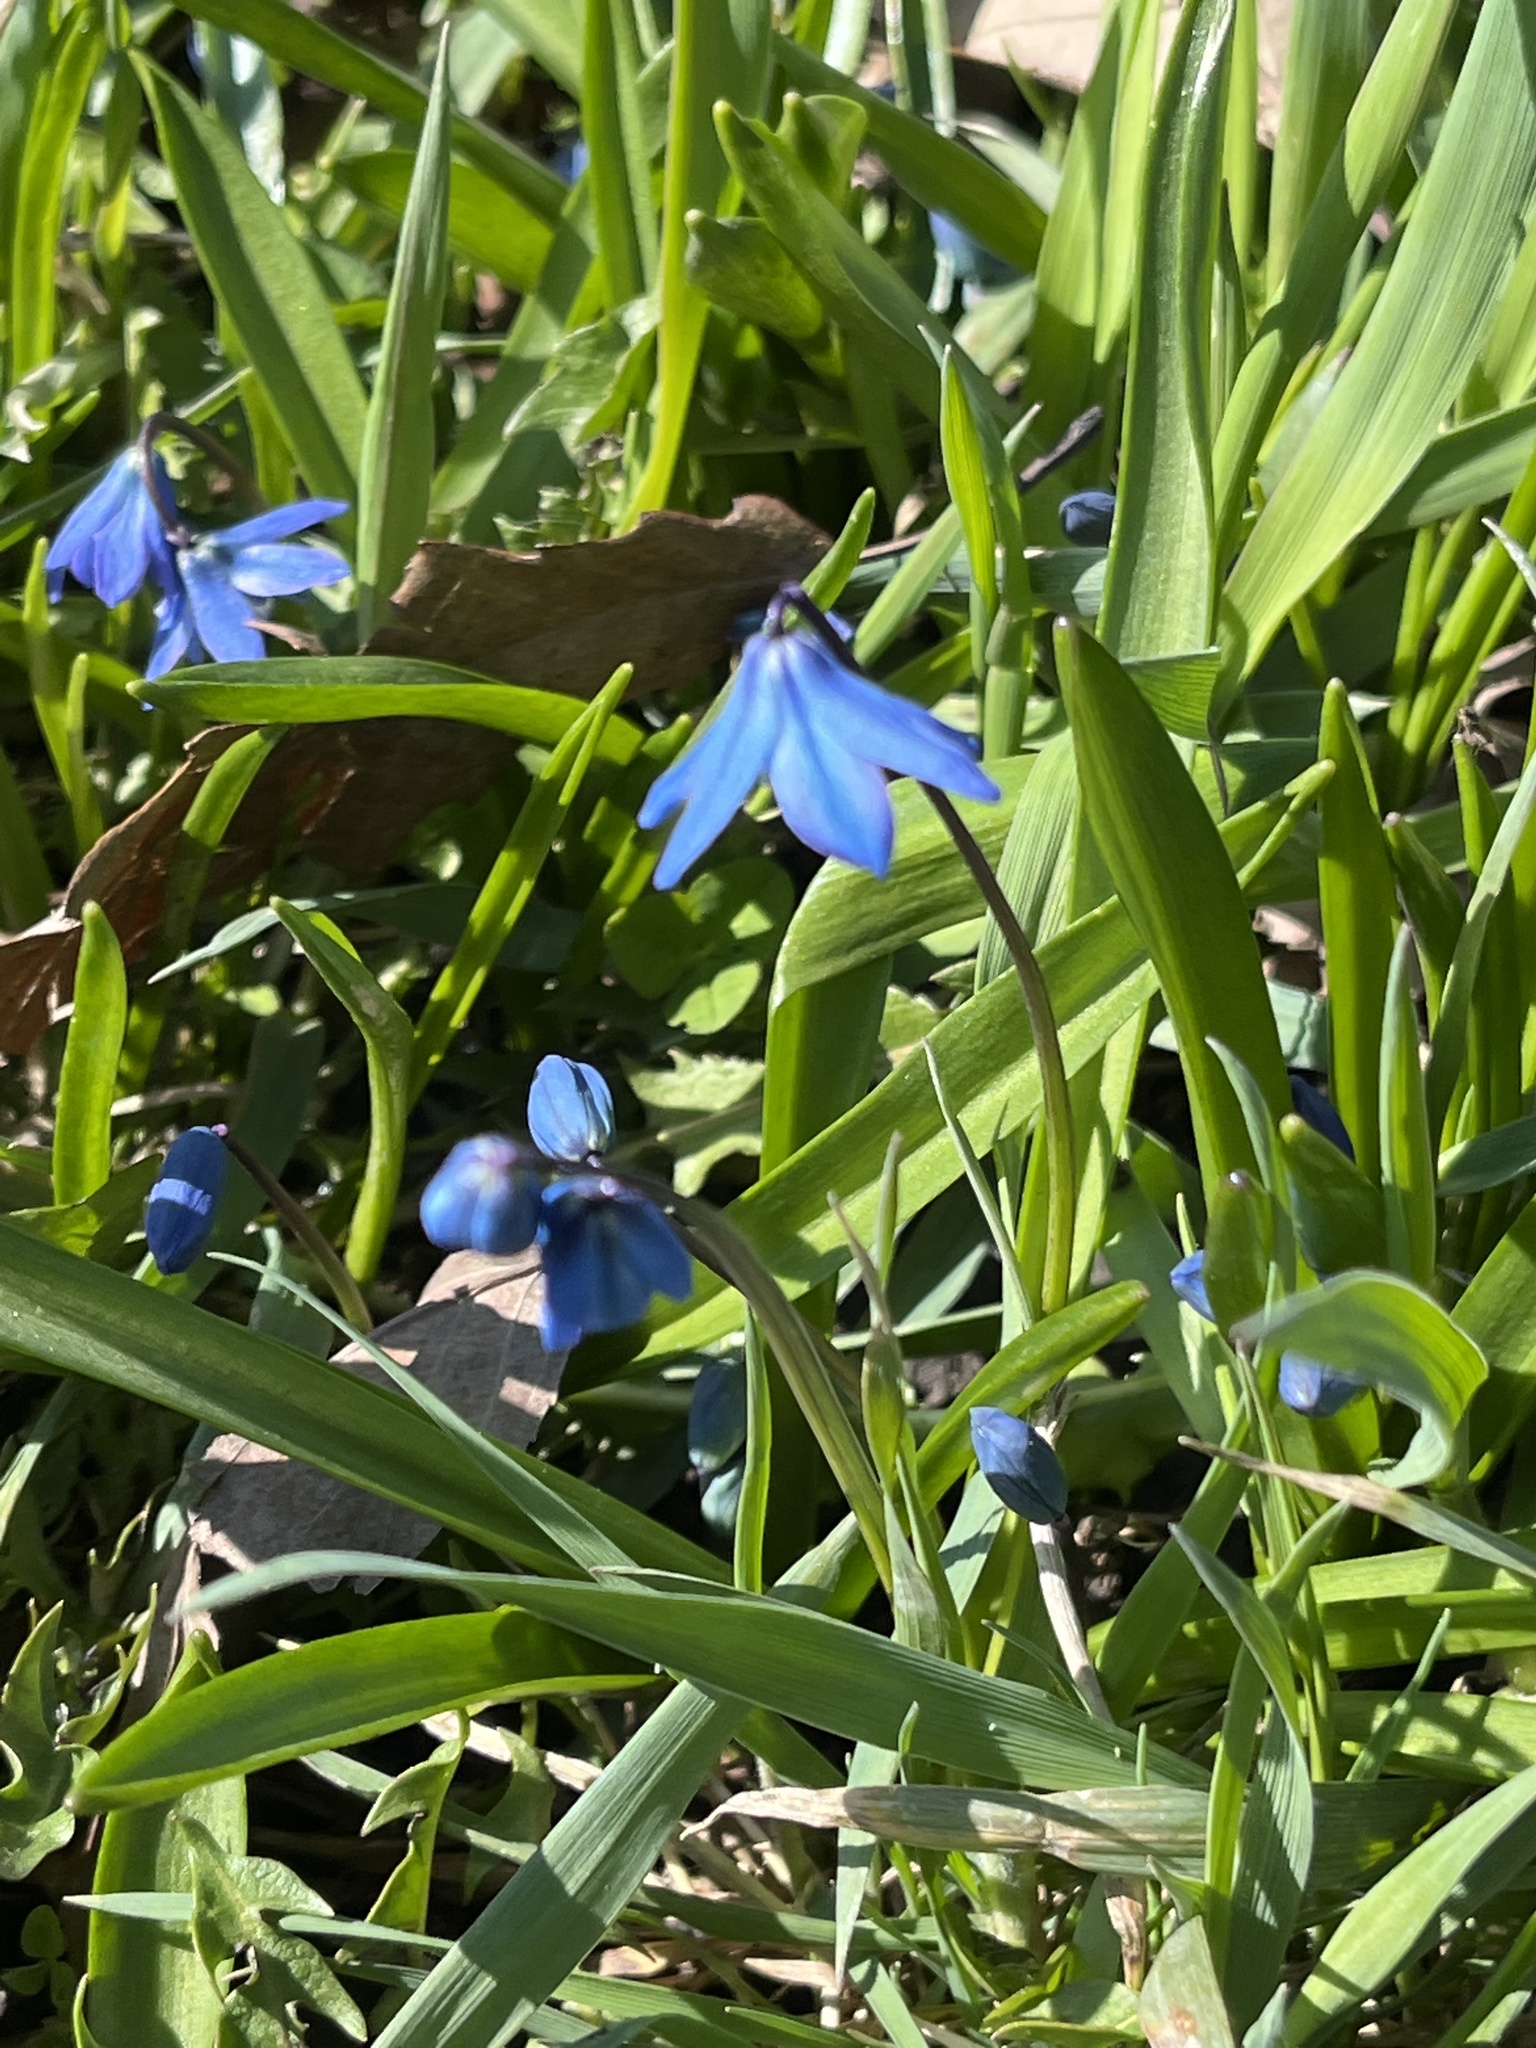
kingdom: Plantae
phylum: Tracheophyta
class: Liliopsida
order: Asparagales
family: Asparagaceae
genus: Scilla
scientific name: Scilla siberica
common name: Siberian squill
